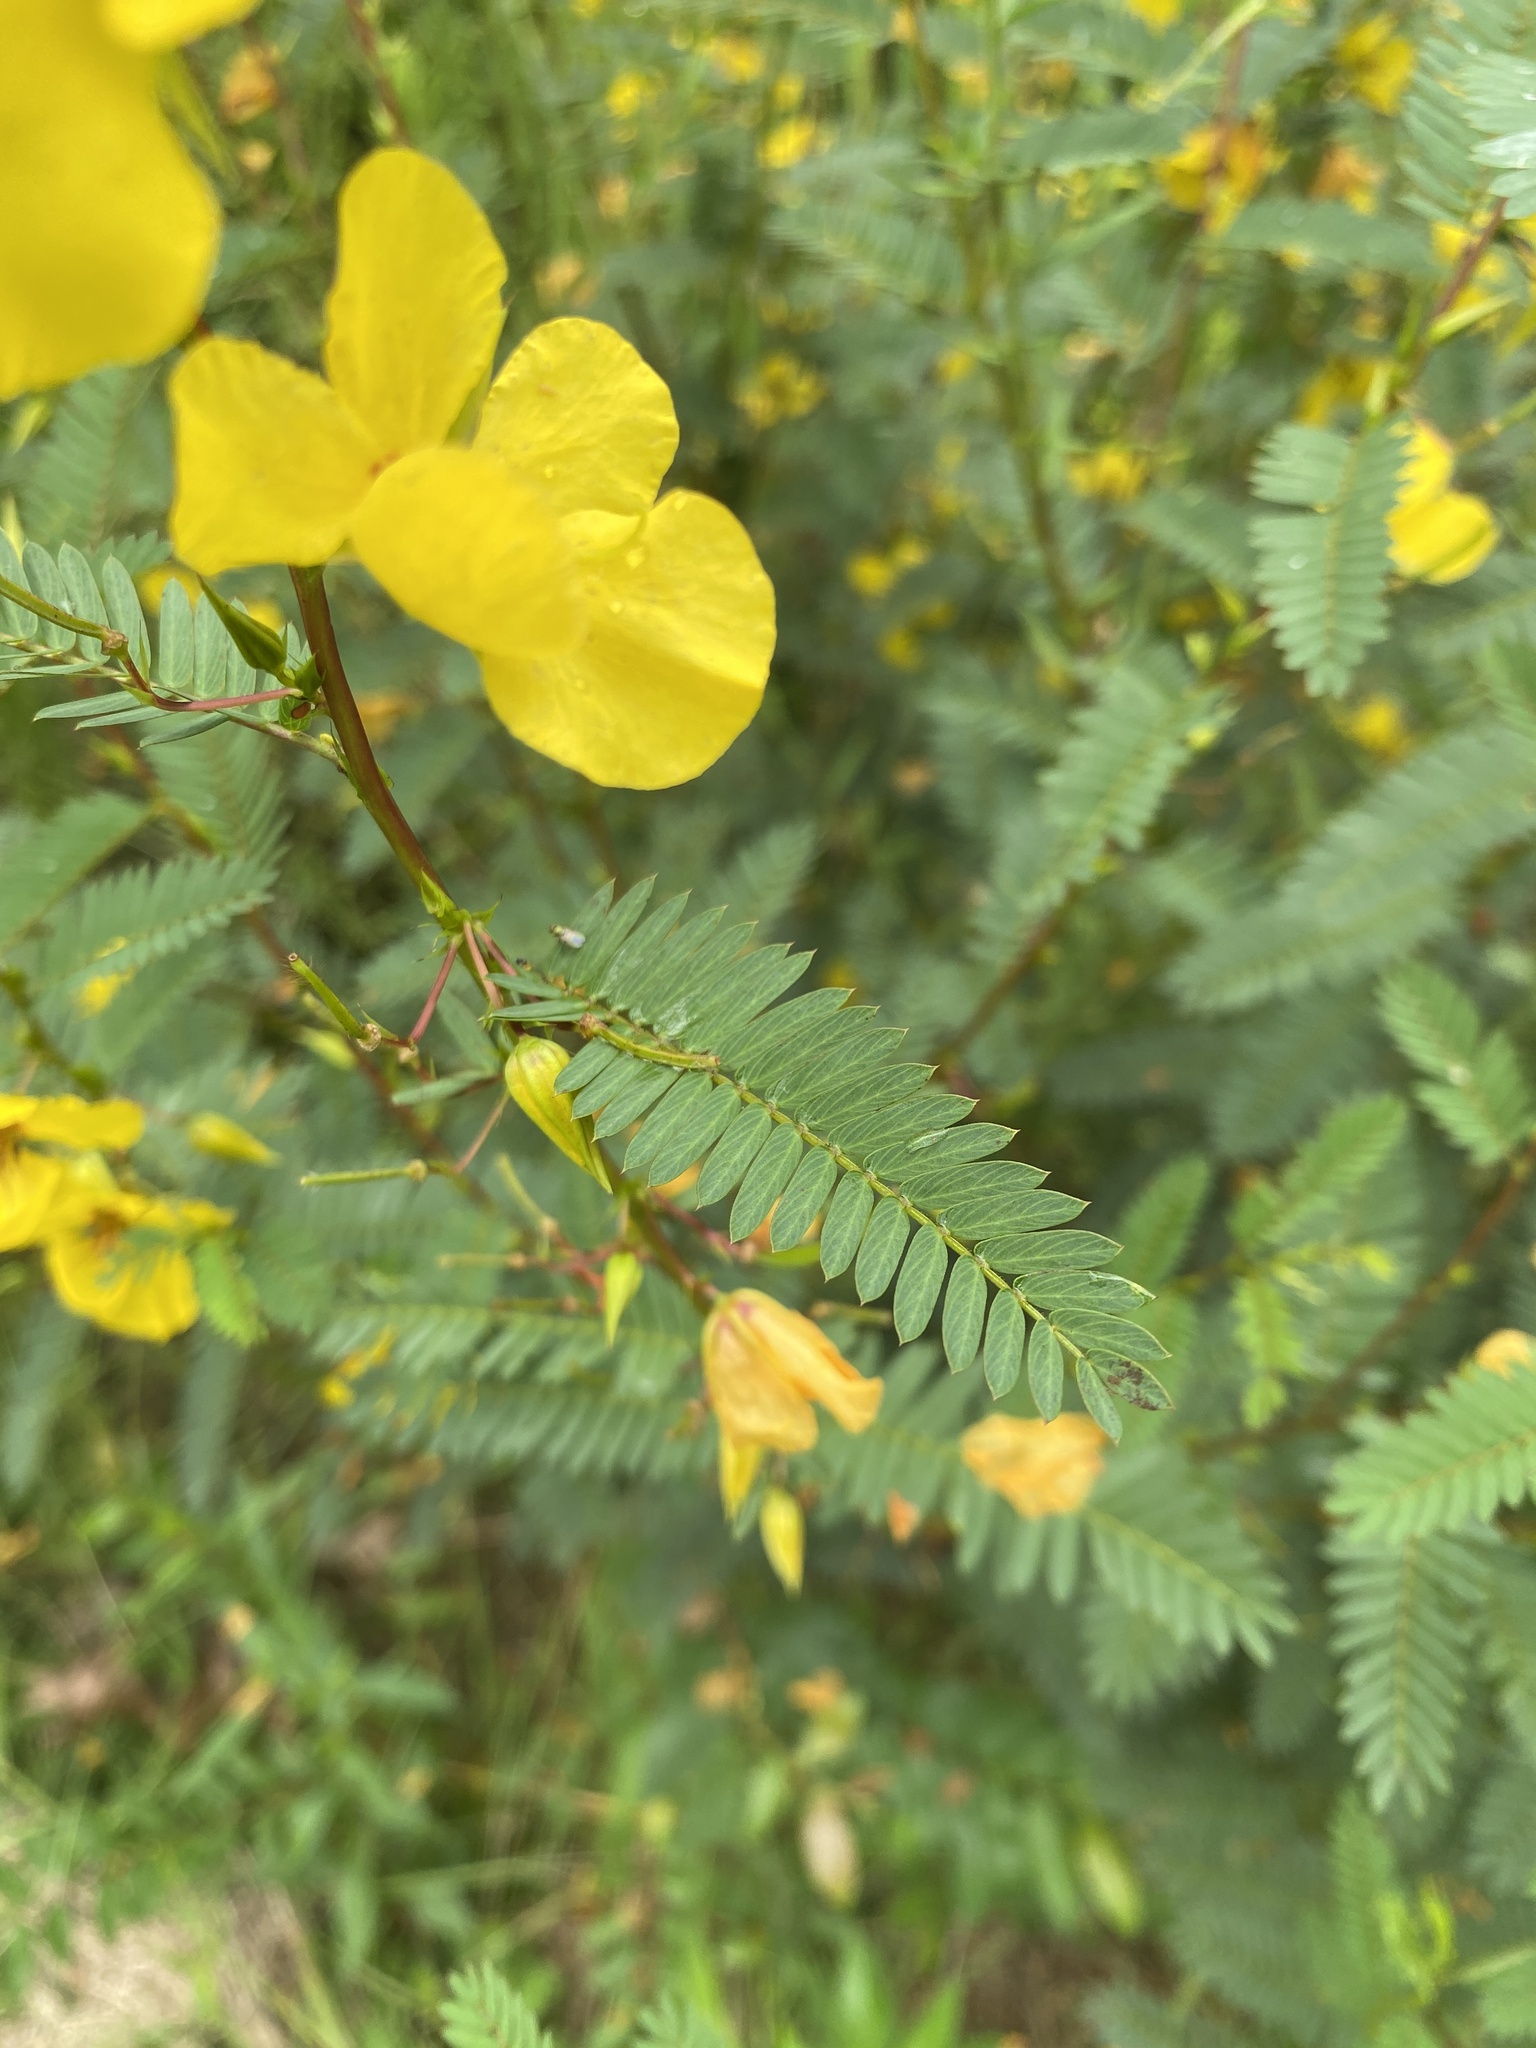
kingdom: Plantae
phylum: Tracheophyta
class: Magnoliopsida
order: Fabales
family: Fabaceae
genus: Chamaecrista
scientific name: Chamaecrista fasciculata
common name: Golden cassia
